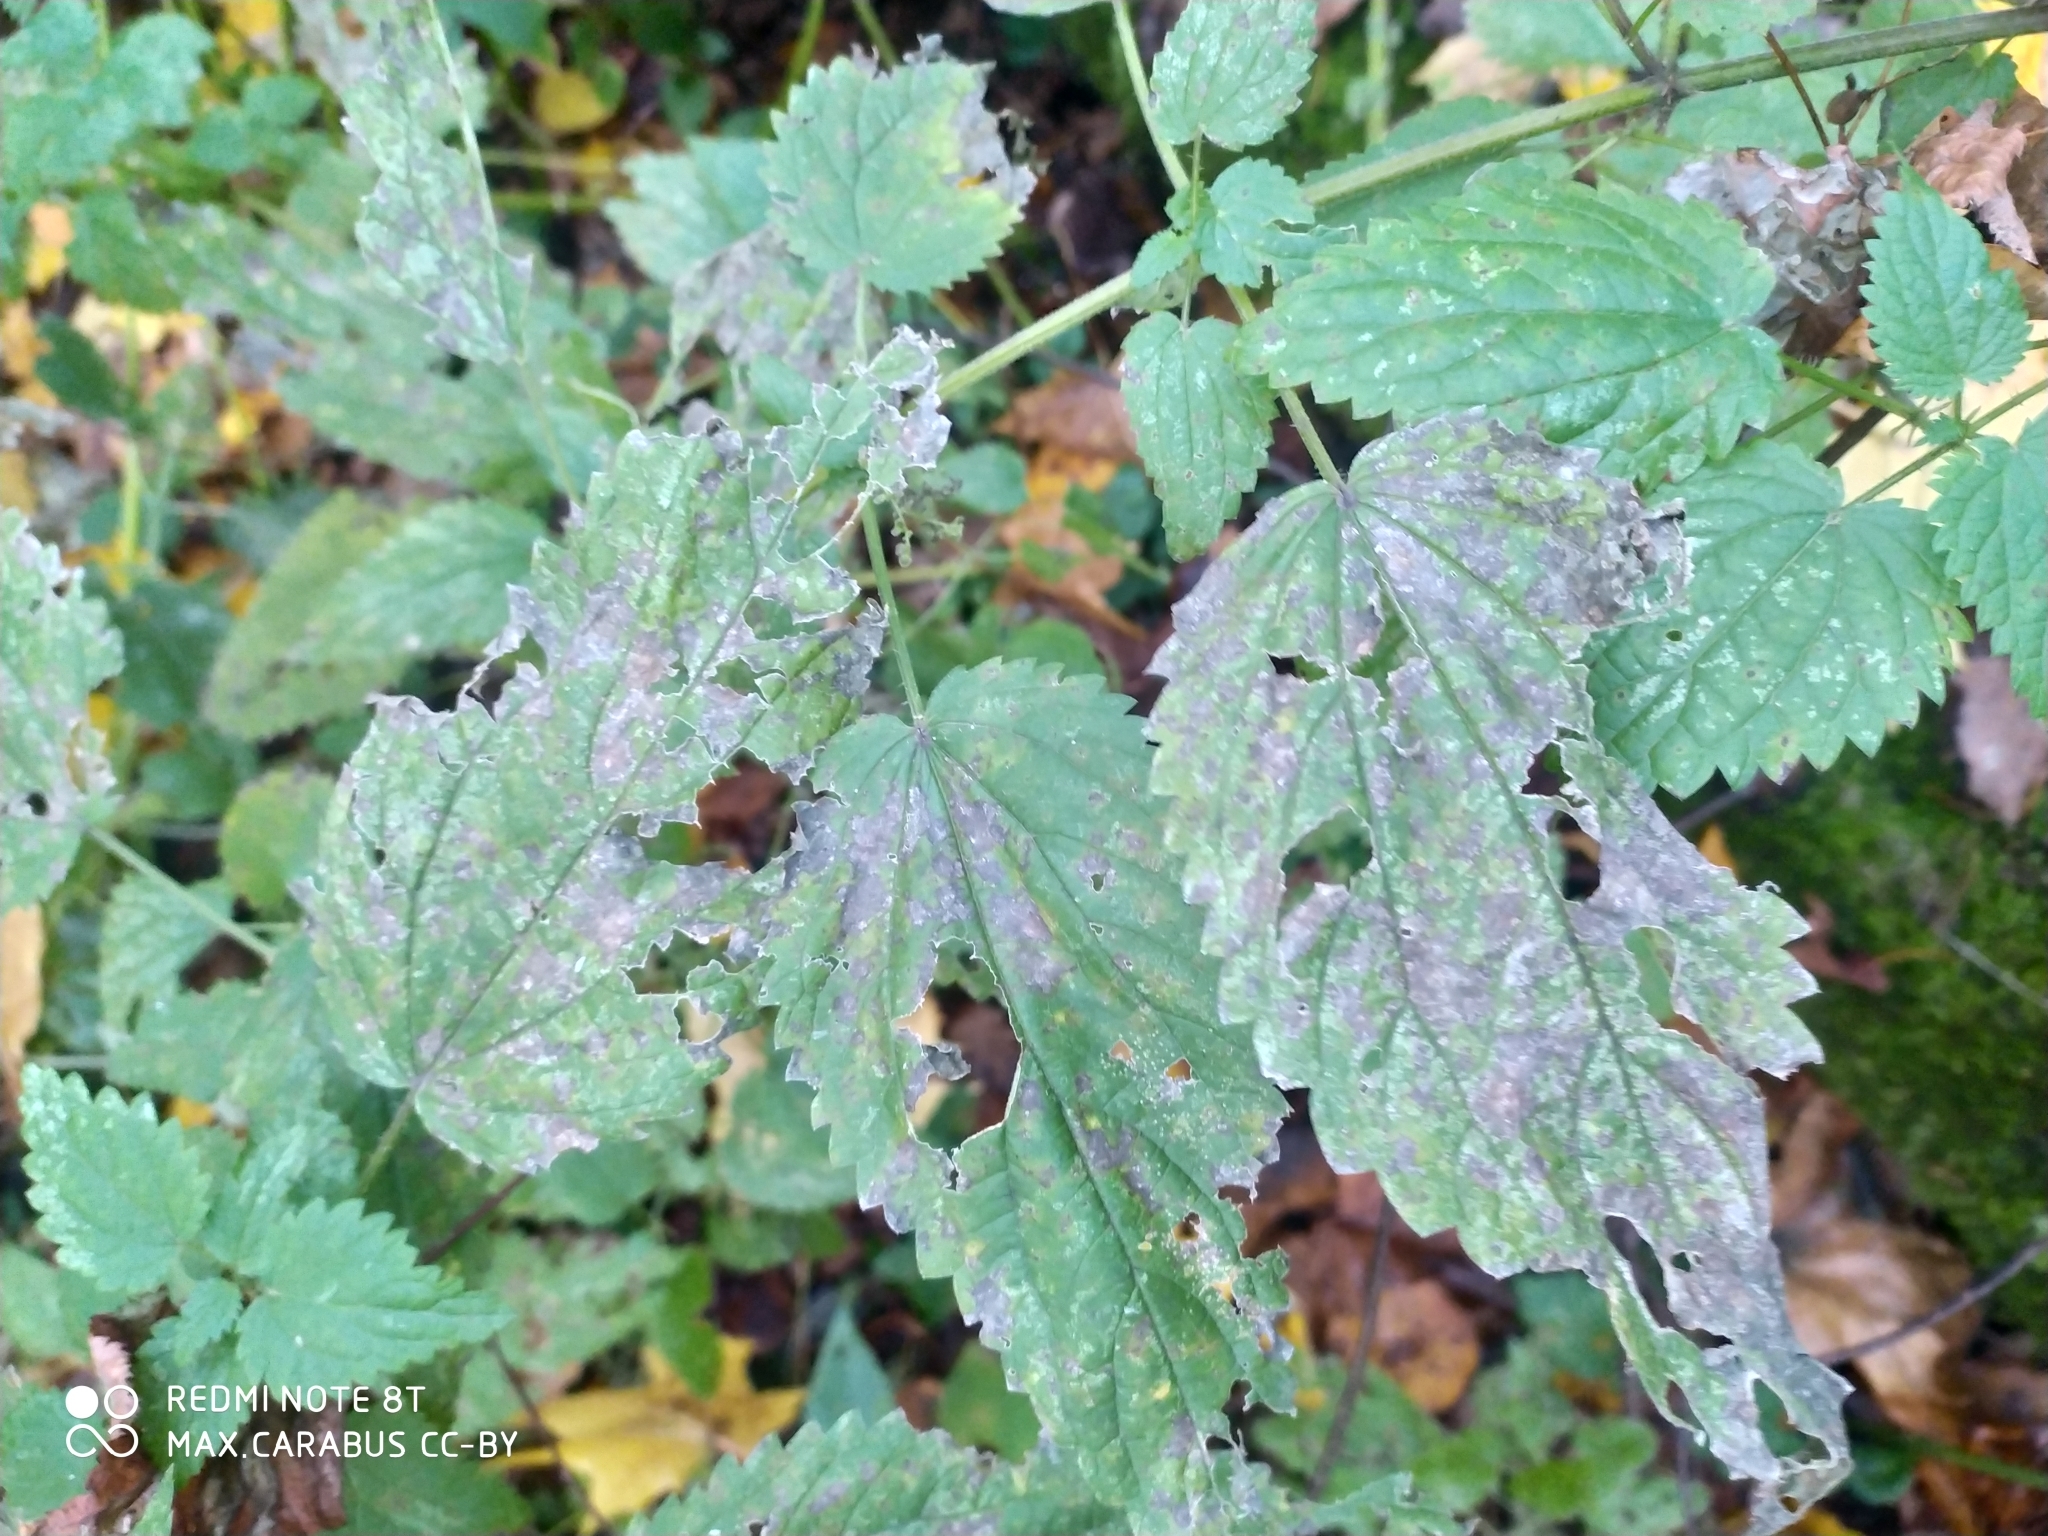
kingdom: Plantae
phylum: Tracheophyta
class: Magnoliopsida
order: Rosales
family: Urticaceae
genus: Urtica
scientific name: Urtica dioica
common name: Common nettle
